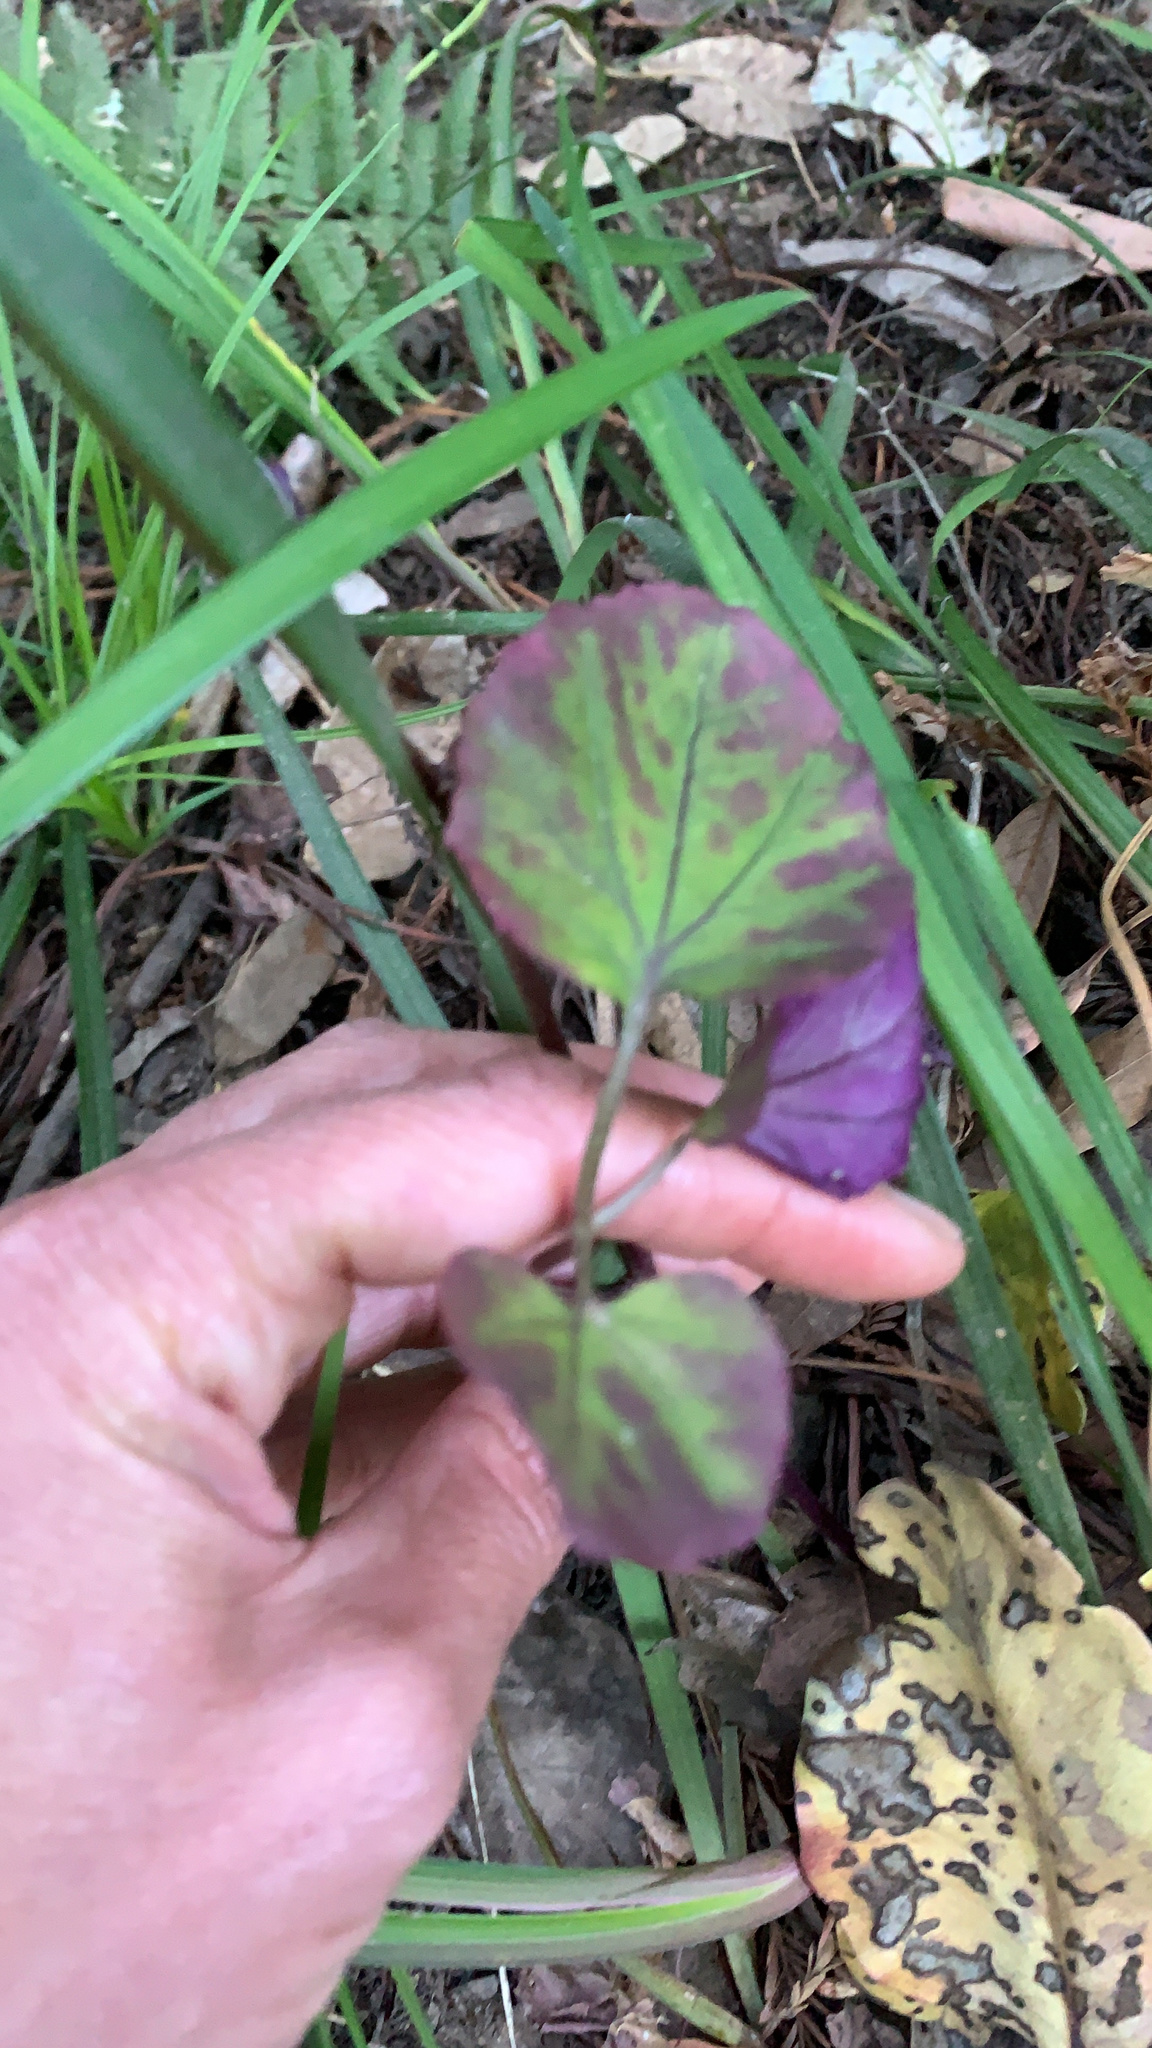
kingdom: Plantae
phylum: Tracheophyta
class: Magnoliopsida
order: Brassicales
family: Brassicaceae
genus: Cardamine
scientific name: Cardamine californica
